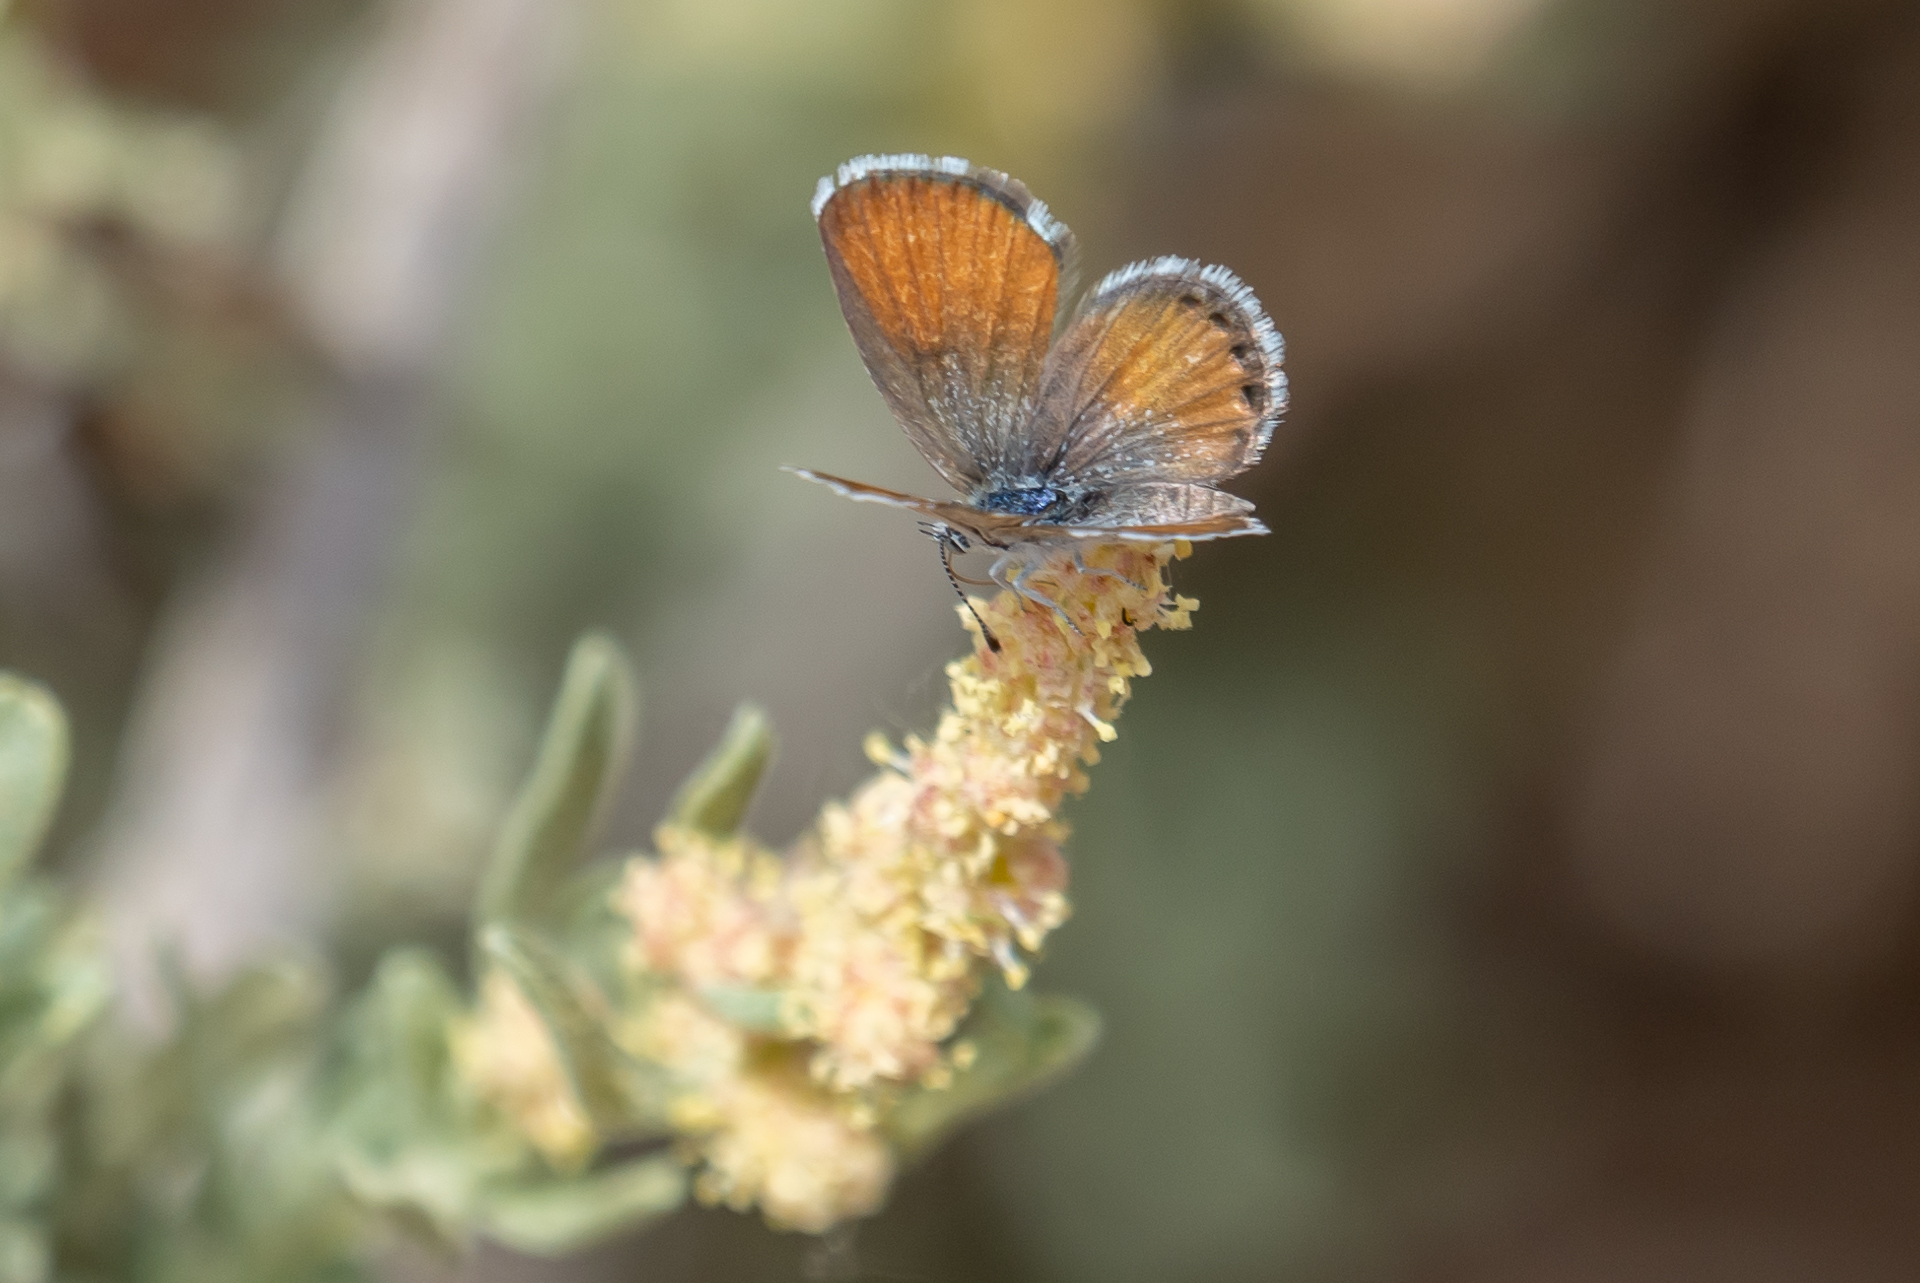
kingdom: Animalia
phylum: Arthropoda
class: Insecta
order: Lepidoptera
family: Lycaenidae
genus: Brephidium
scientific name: Brephidium exilis
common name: Pygmy blue
